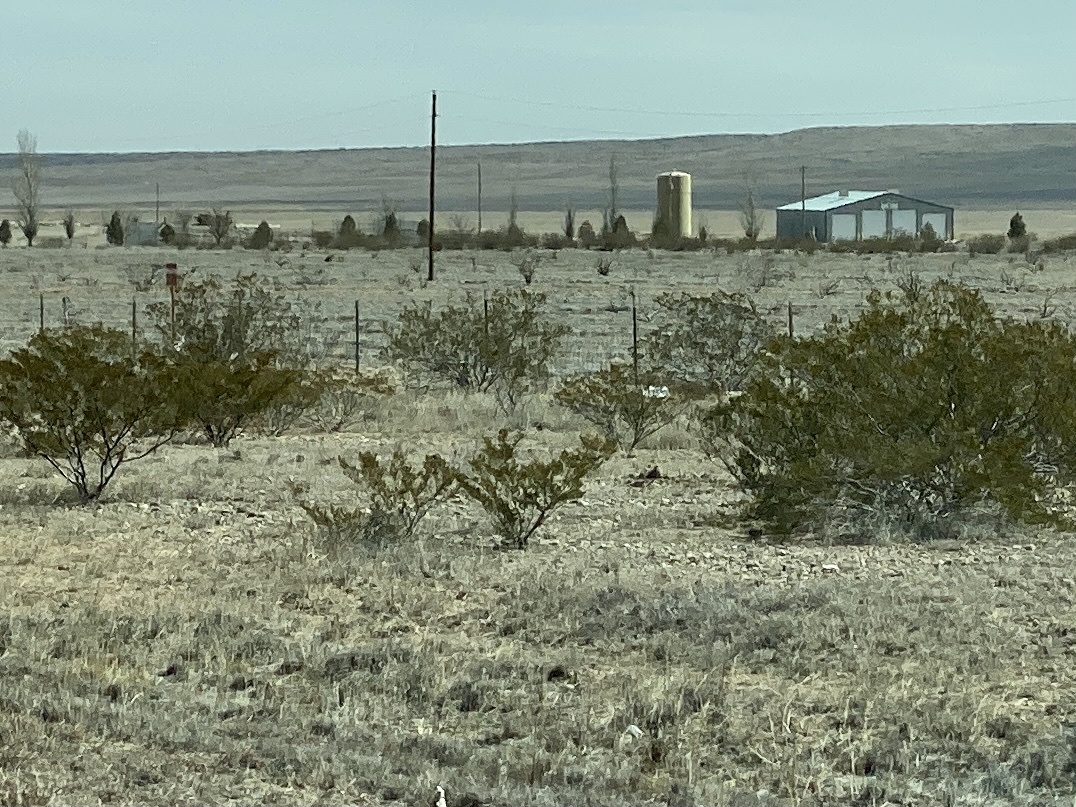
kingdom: Plantae
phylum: Tracheophyta
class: Magnoliopsida
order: Zygophyllales
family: Zygophyllaceae
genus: Larrea
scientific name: Larrea tridentata
